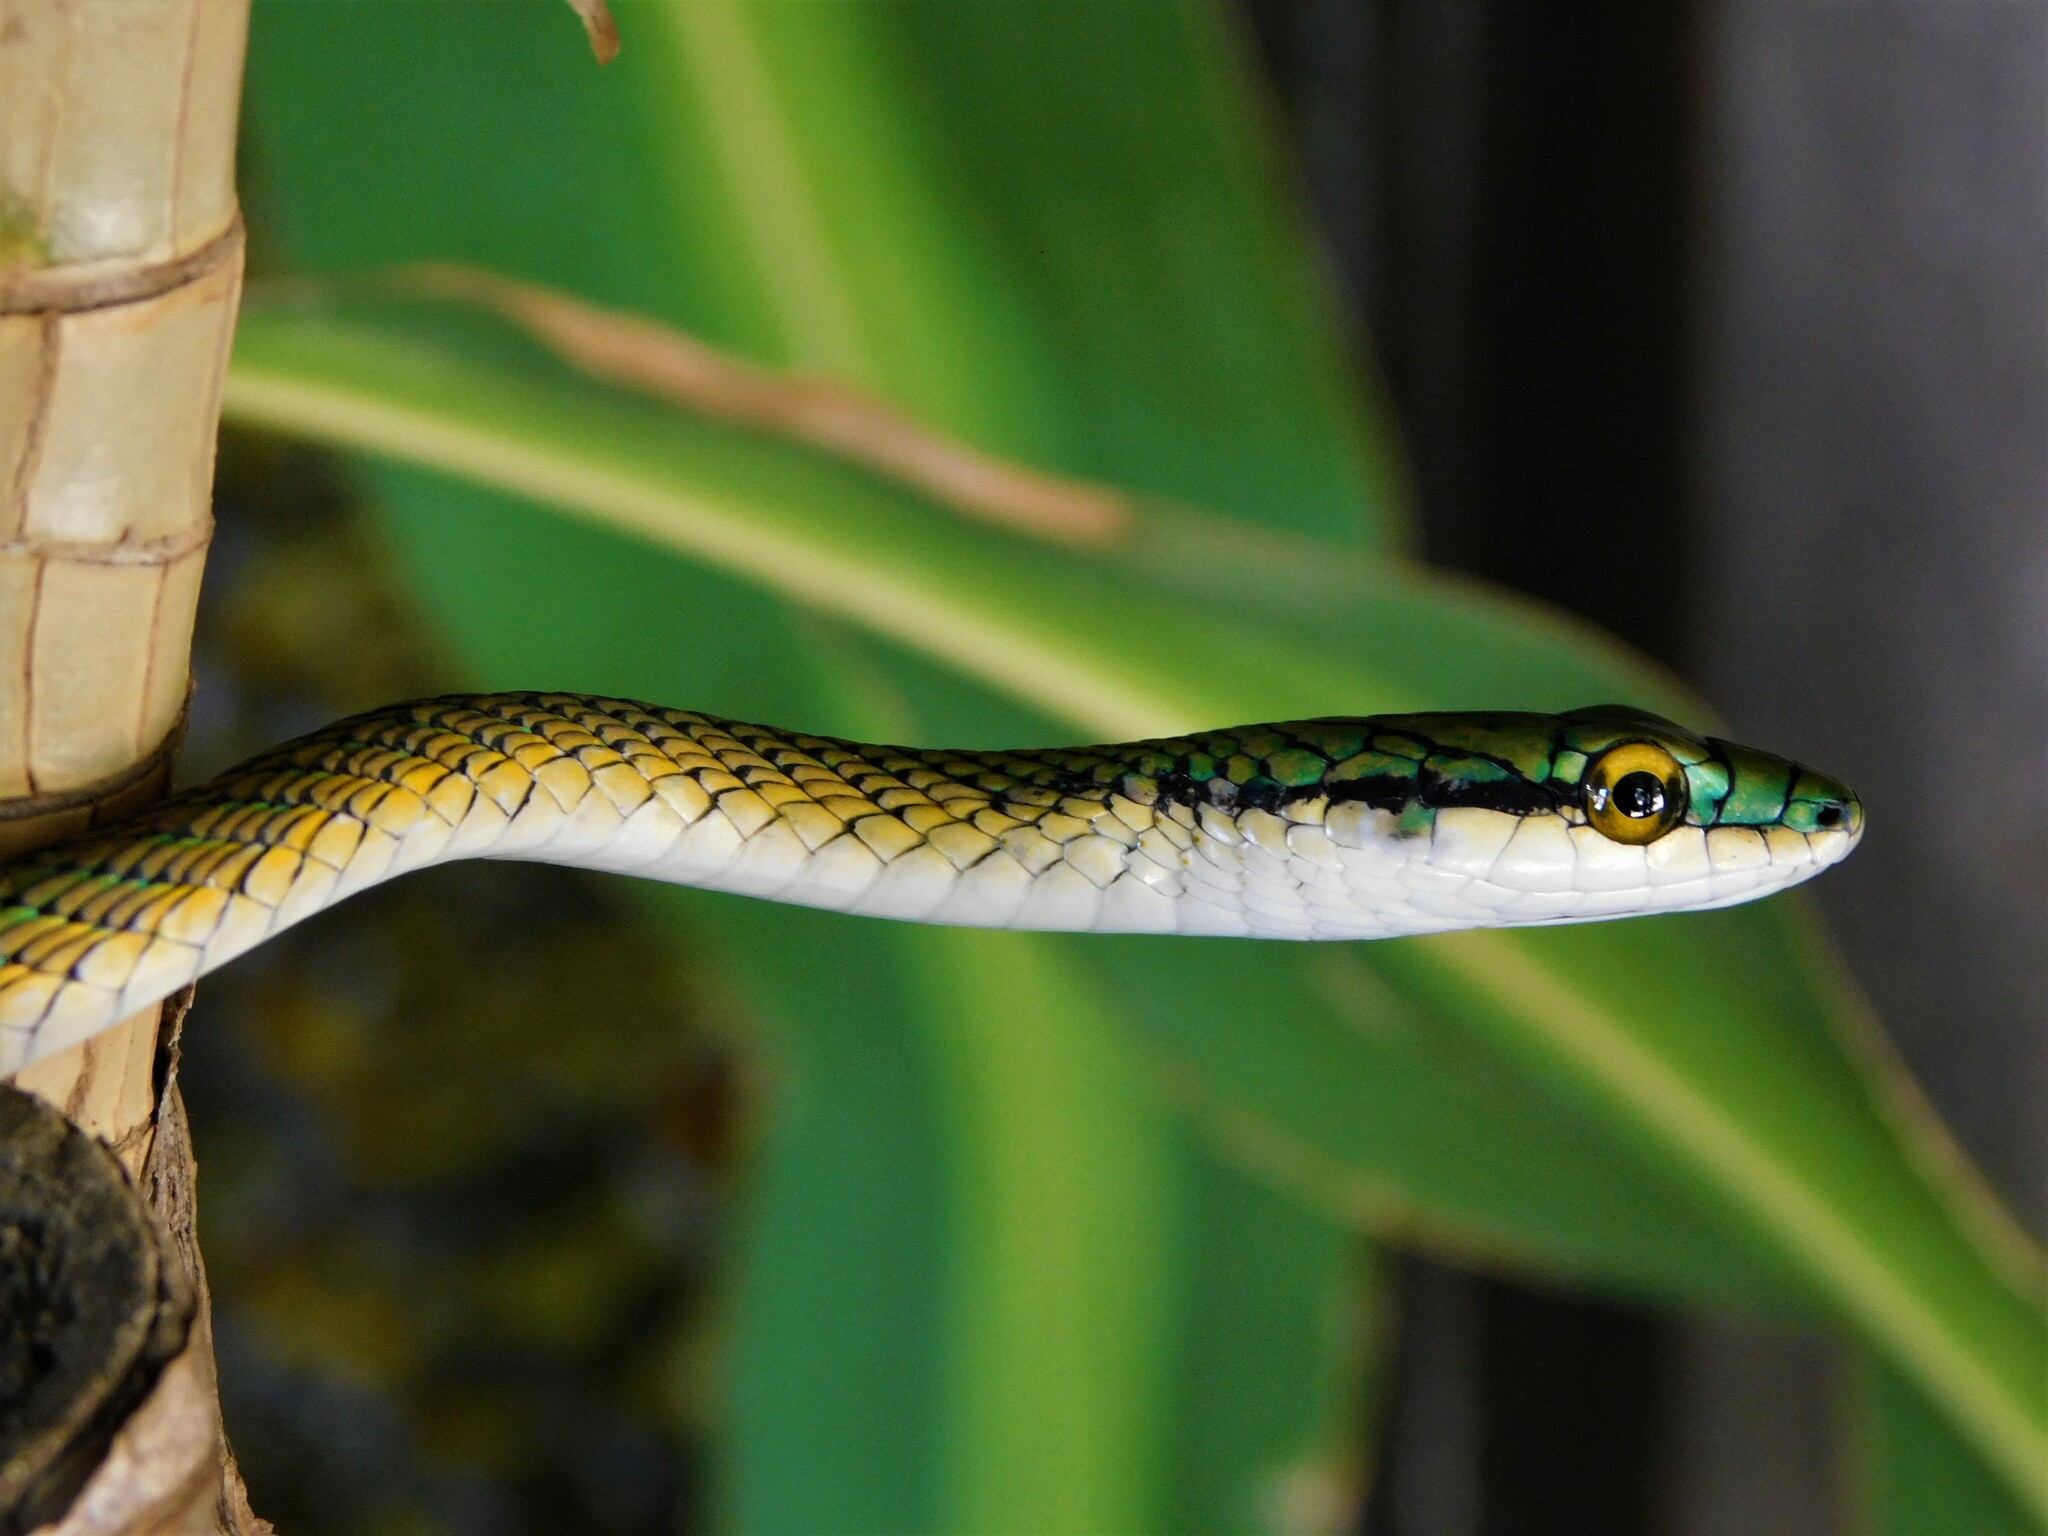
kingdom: Animalia
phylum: Chordata
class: Squamata
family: Colubridae
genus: Leptophis
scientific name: Leptophis ahaetulla
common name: Parrot snake
